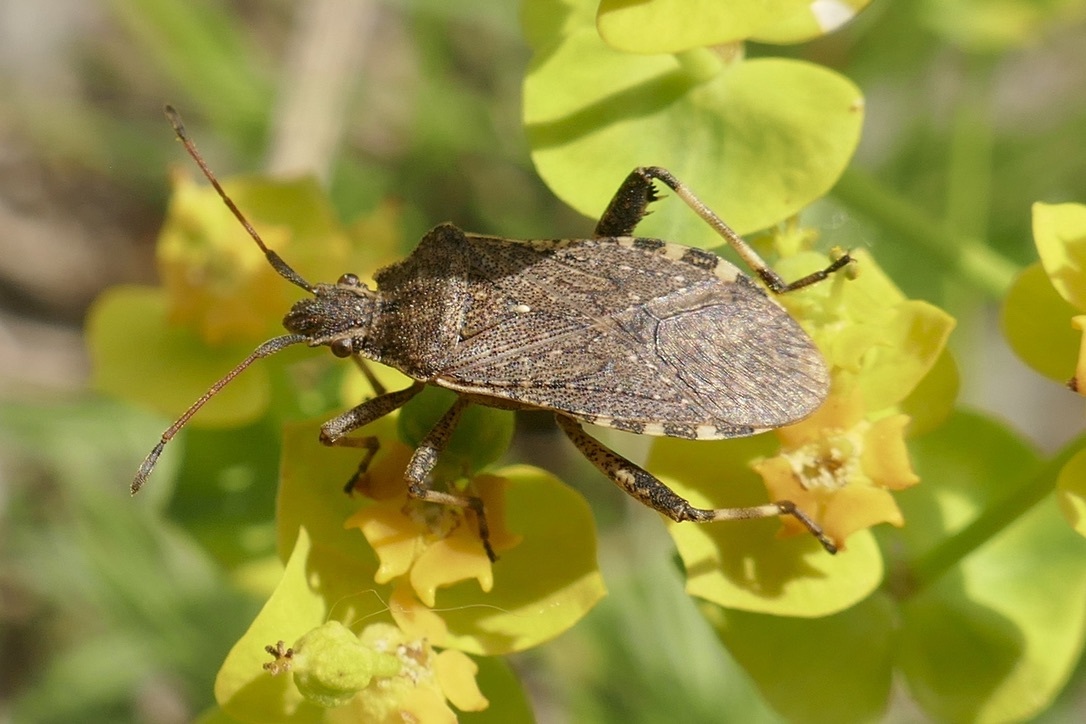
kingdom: Animalia
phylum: Arthropoda
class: Insecta
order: Hemiptera
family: Coreidae
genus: Ceraleptus
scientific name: Ceraleptus gracilicornis
